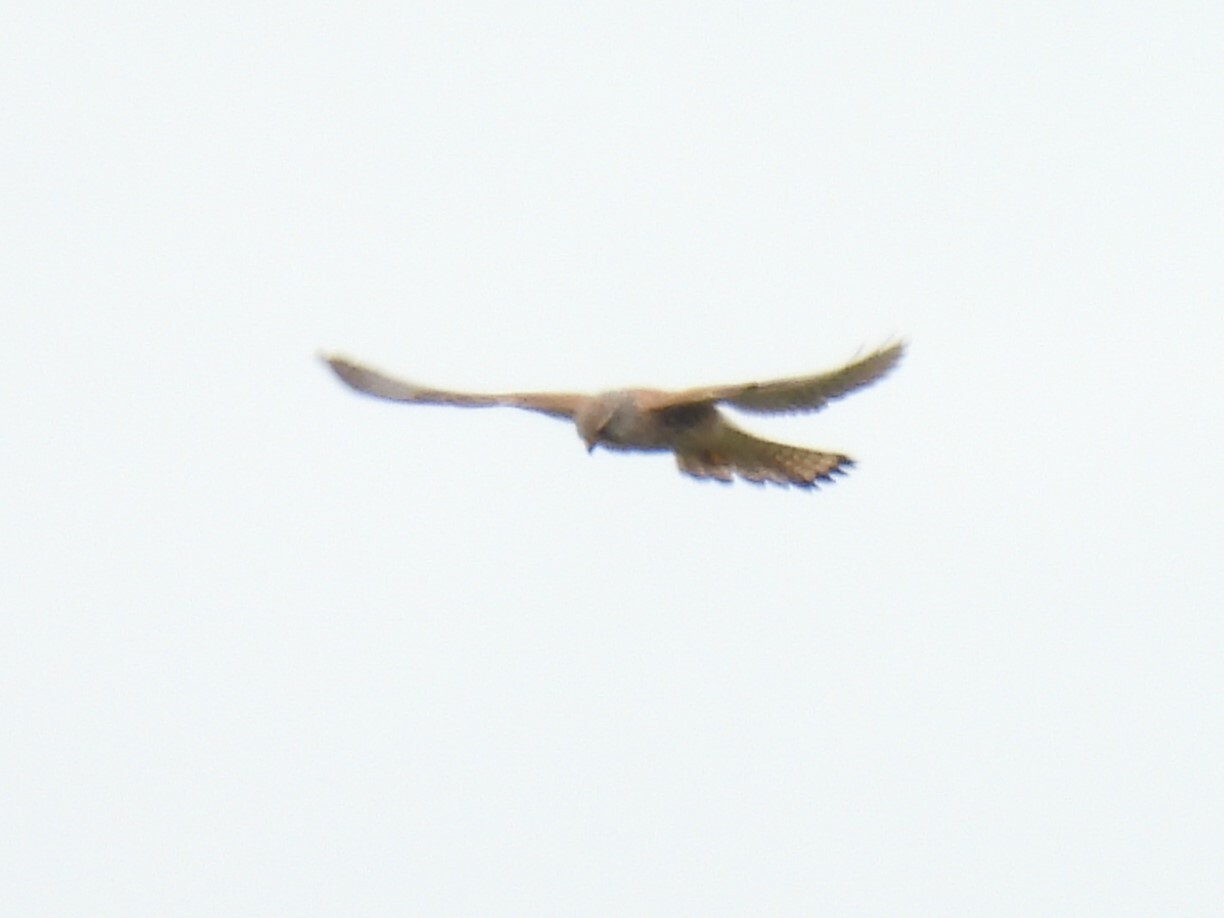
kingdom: Animalia
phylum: Chordata
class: Aves
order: Falconiformes
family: Falconidae
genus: Falco
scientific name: Falco tinnunculus
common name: Common kestrel
